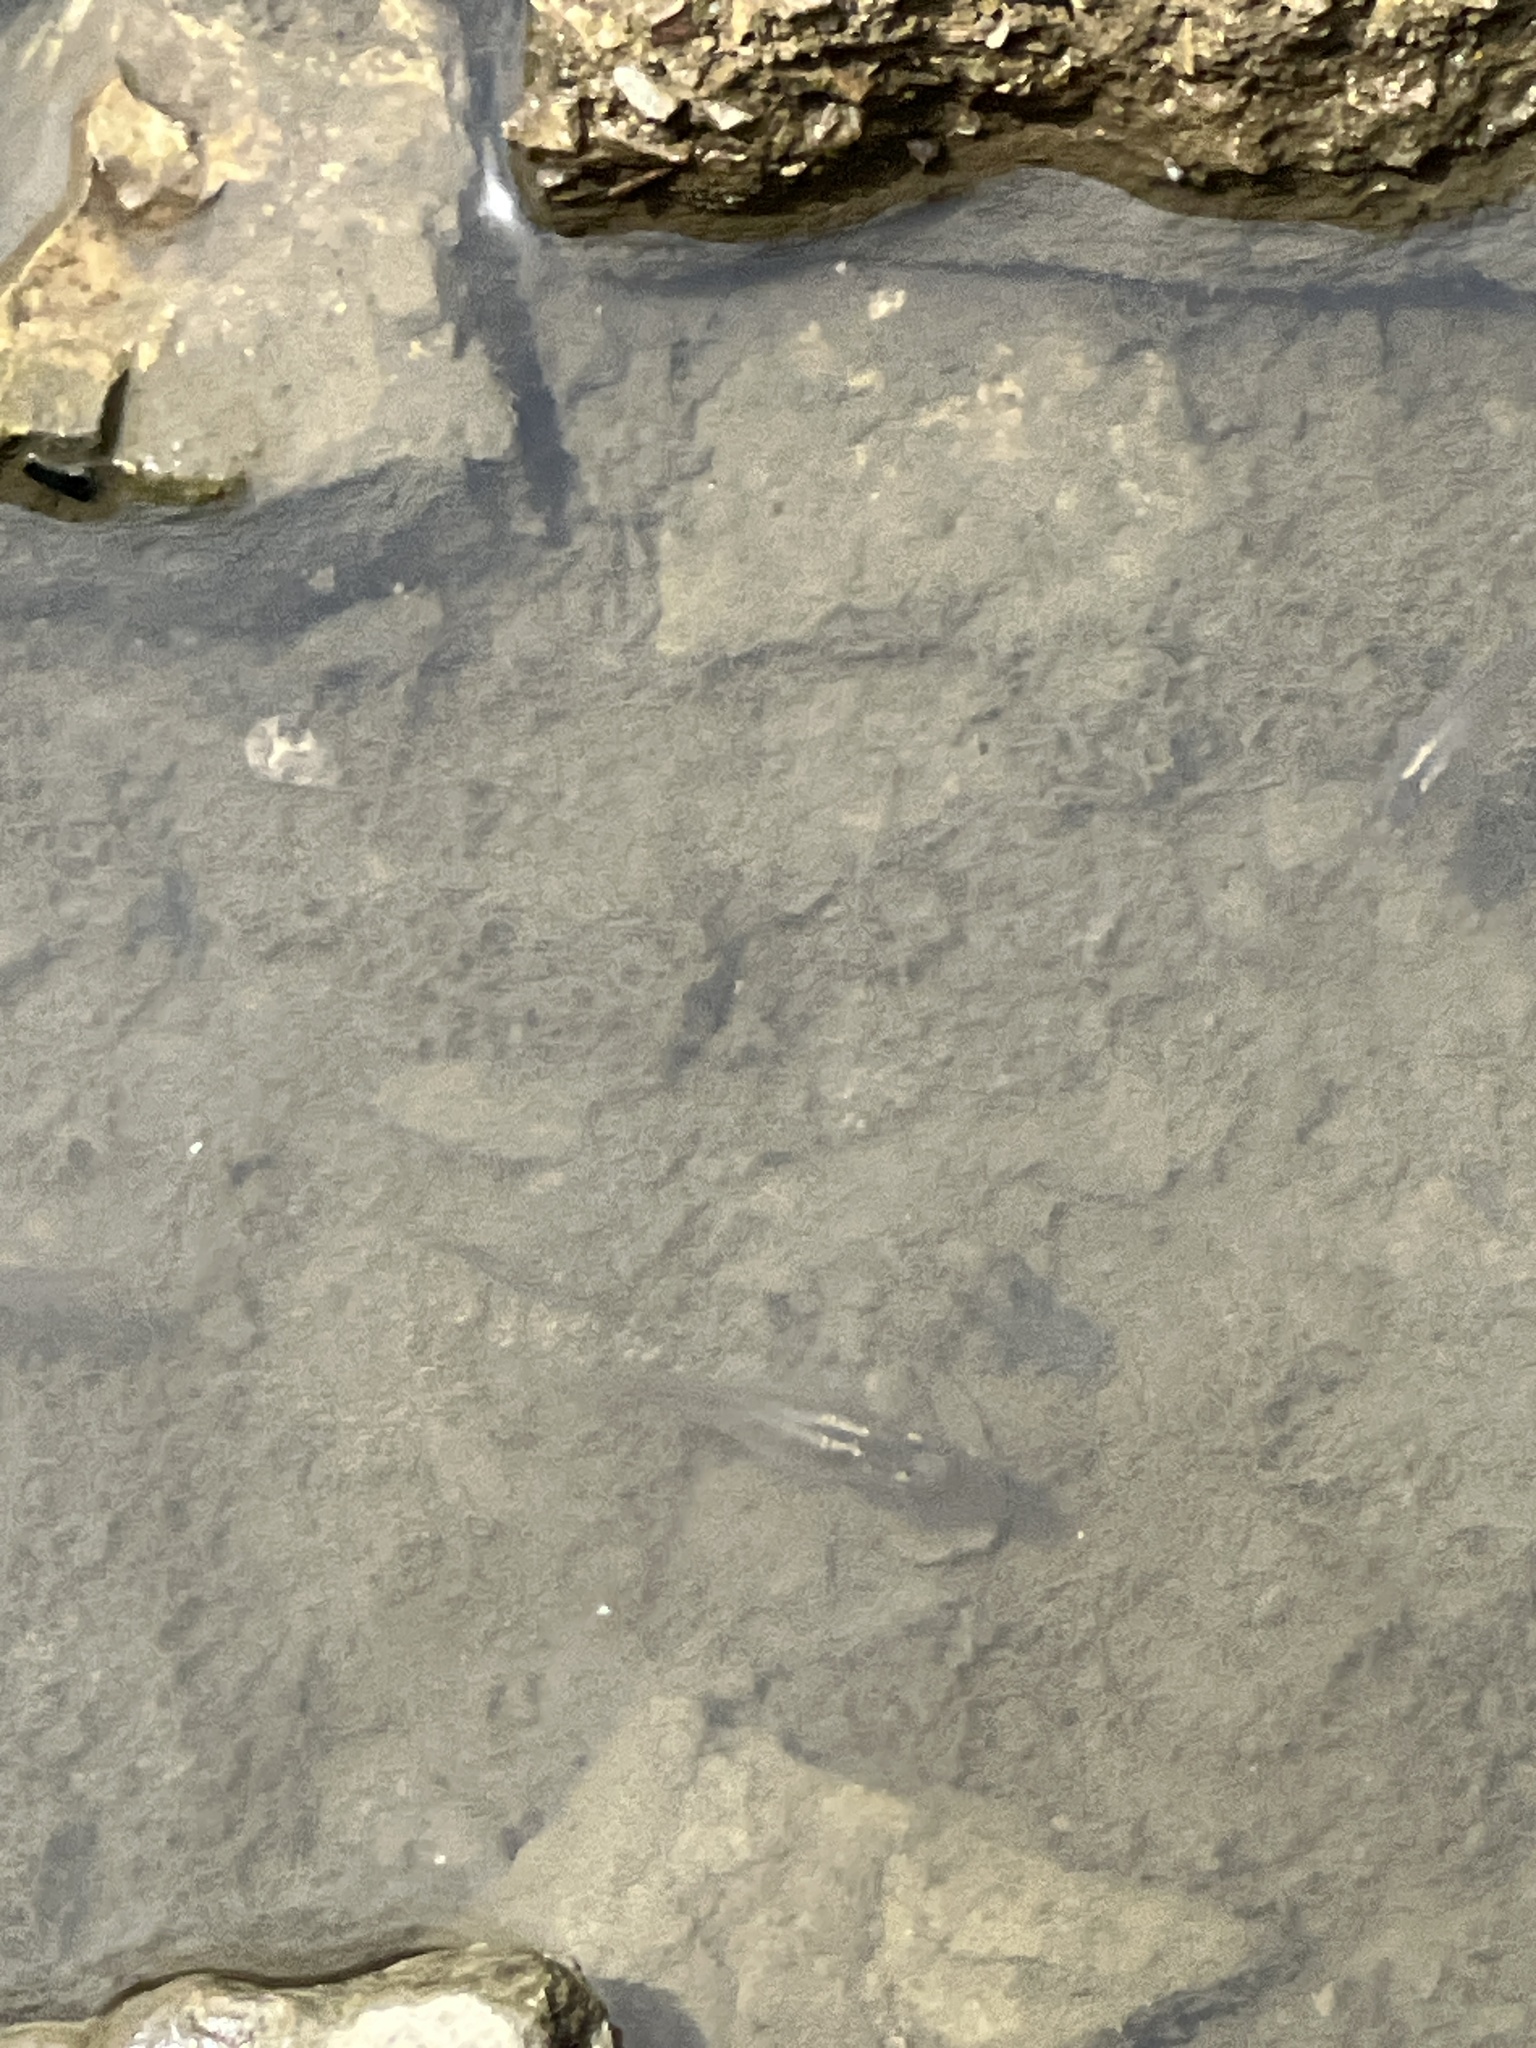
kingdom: Animalia
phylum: Chordata
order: Cyprinodontiformes
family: Poeciliidae
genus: Gambusia
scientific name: Gambusia affinis
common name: Mosquitofish
